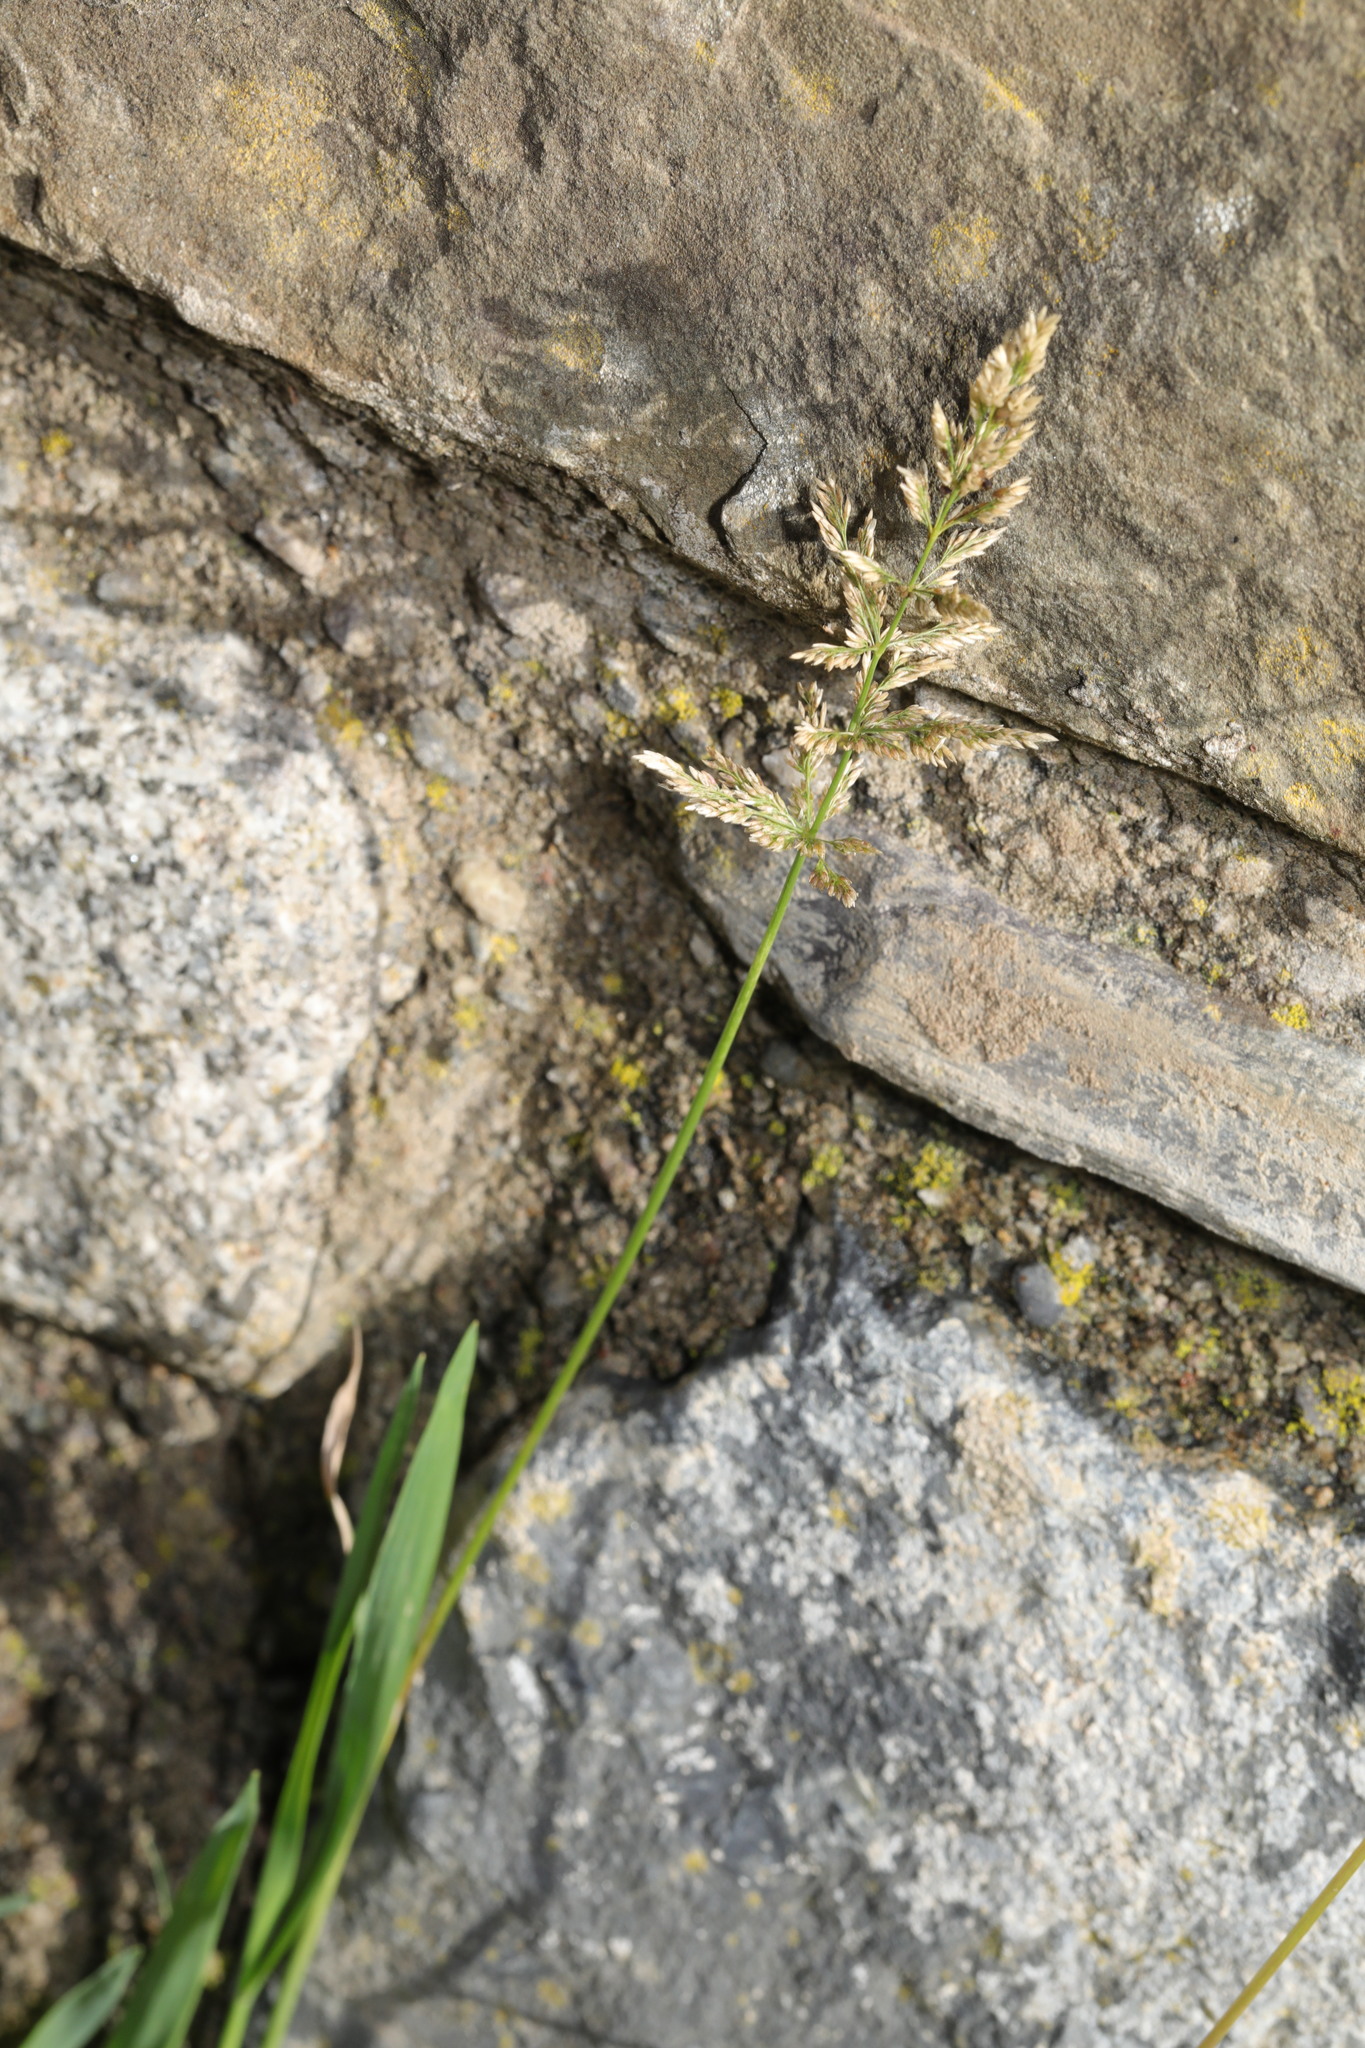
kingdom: Plantae
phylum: Tracheophyta
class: Liliopsida
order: Poales
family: Poaceae
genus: Polypogon
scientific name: Polypogon viridis
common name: Water bent
